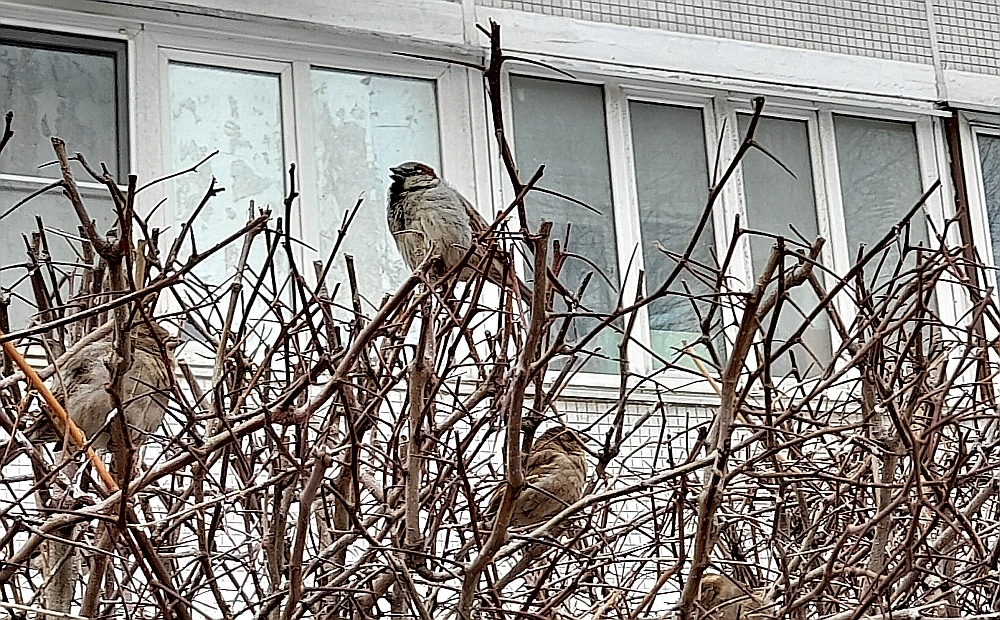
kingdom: Animalia
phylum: Chordata
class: Aves
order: Passeriformes
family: Passeridae
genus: Passer
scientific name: Passer domesticus
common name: House sparrow
